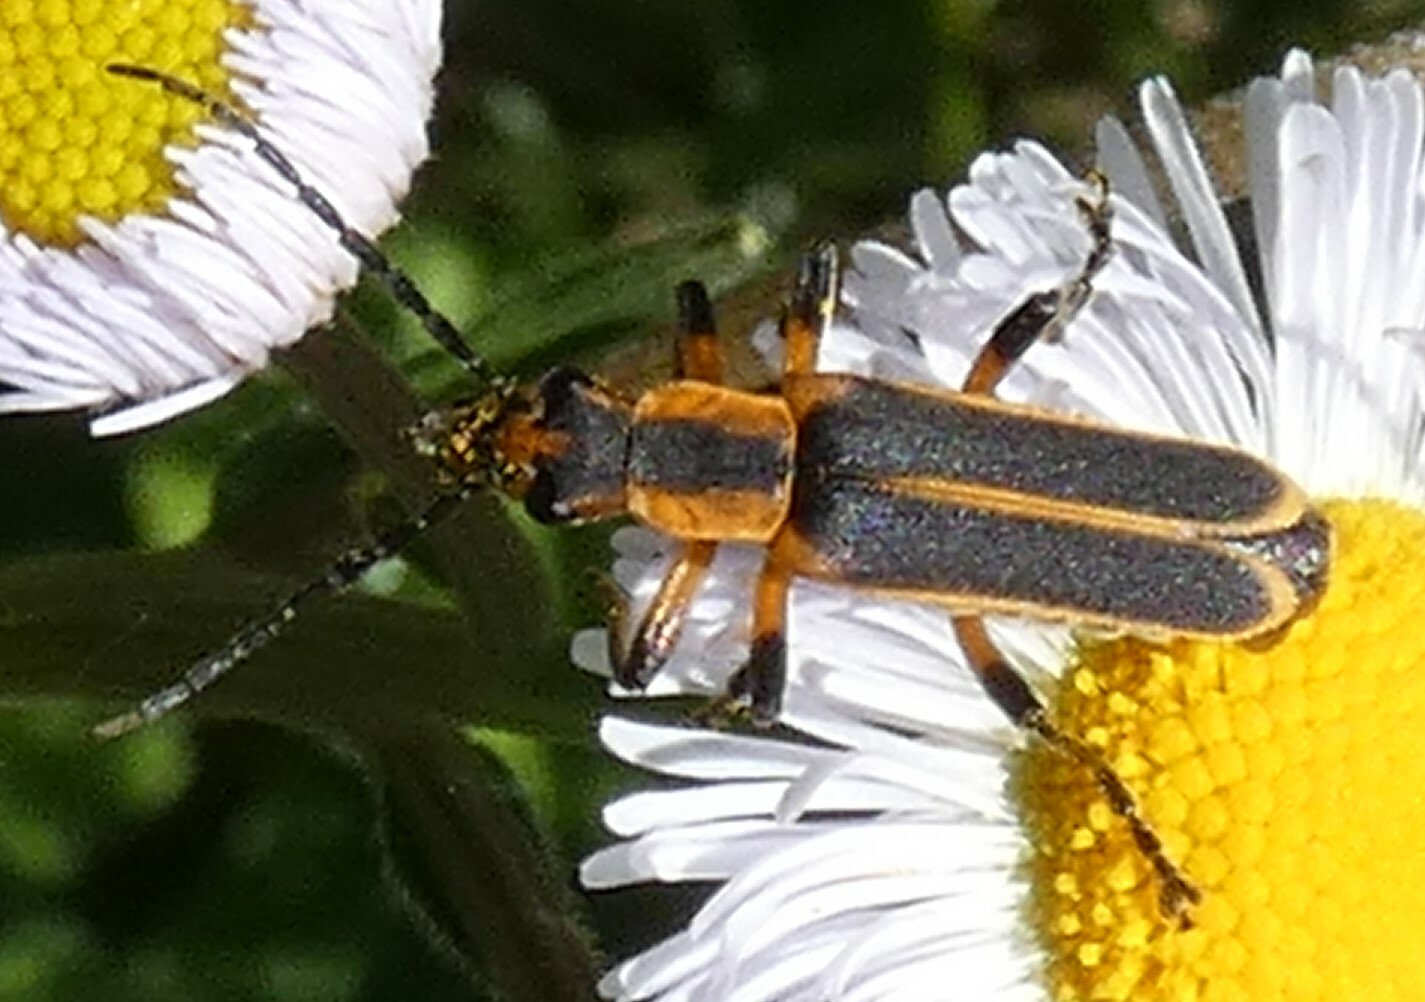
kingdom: Animalia
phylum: Arthropoda
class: Insecta
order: Coleoptera
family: Cantharidae
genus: Chauliognathus
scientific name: Chauliognathus marginatus
